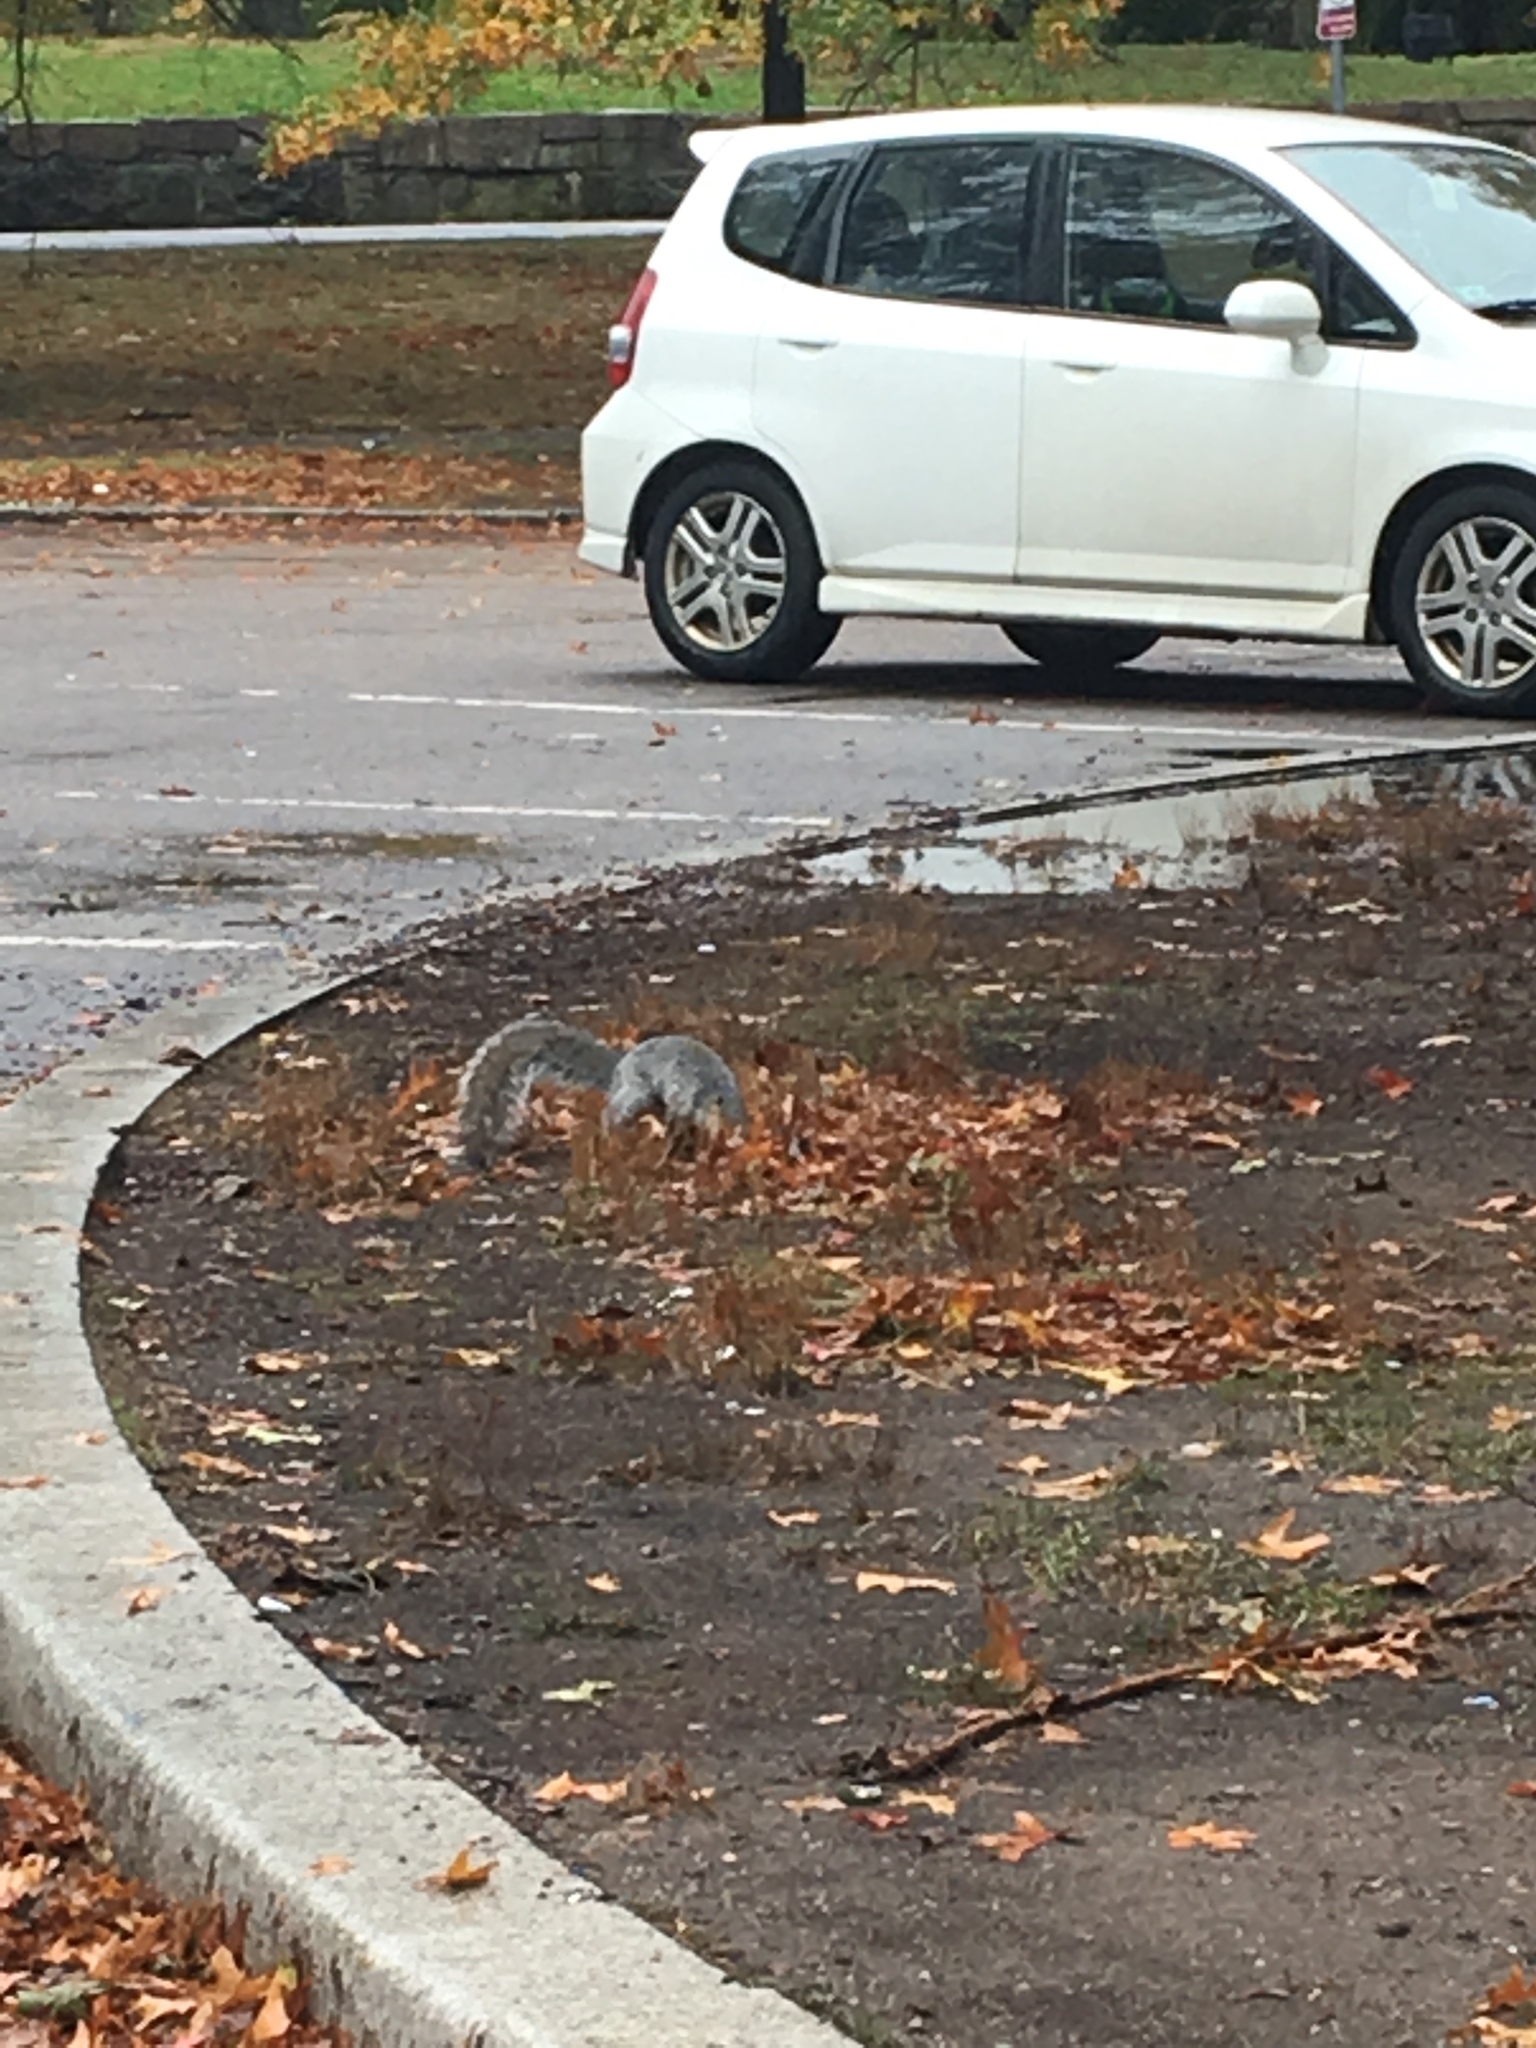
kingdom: Animalia
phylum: Chordata
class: Mammalia
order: Rodentia
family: Sciuridae
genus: Sciurus
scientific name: Sciurus carolinensis
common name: Eastern gray squirrel
